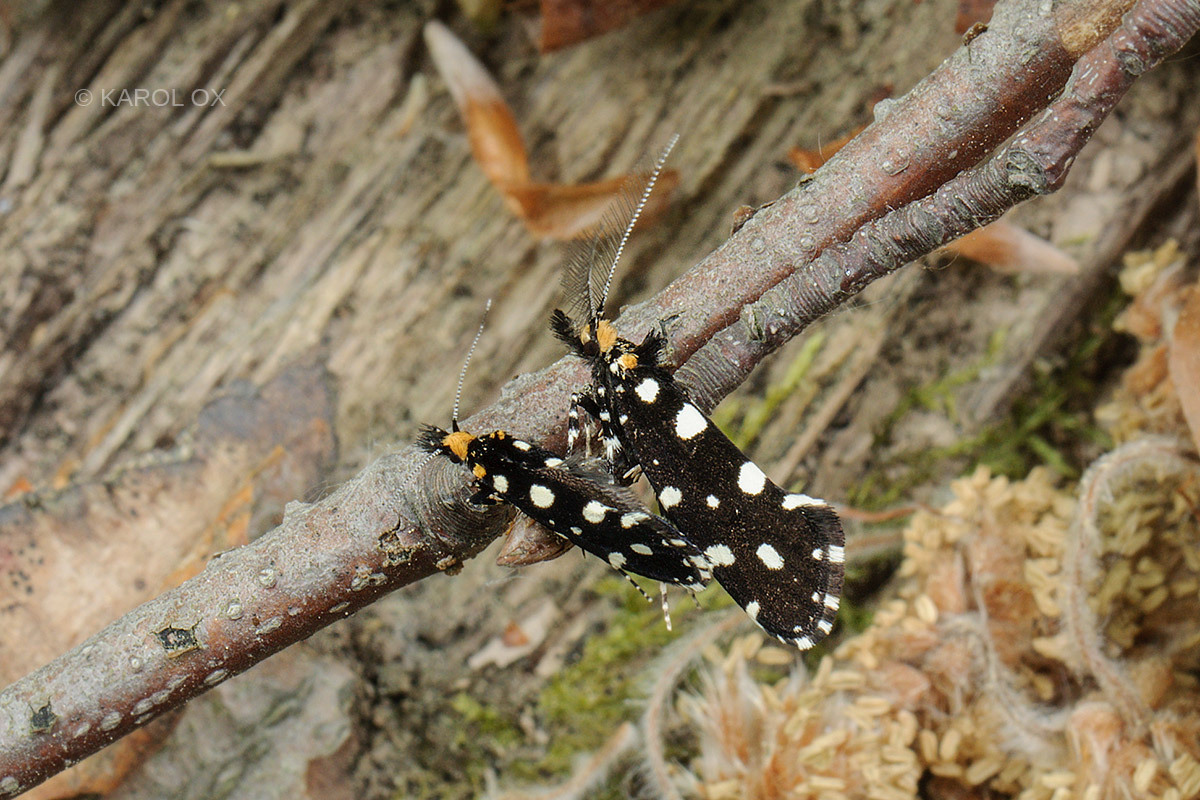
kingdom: Animalia
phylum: Arthropoda
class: Insecta
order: Lepidoptera
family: Tineidae
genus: Euplocamus
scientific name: Euplocamus anthracinalis
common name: Black clothes
